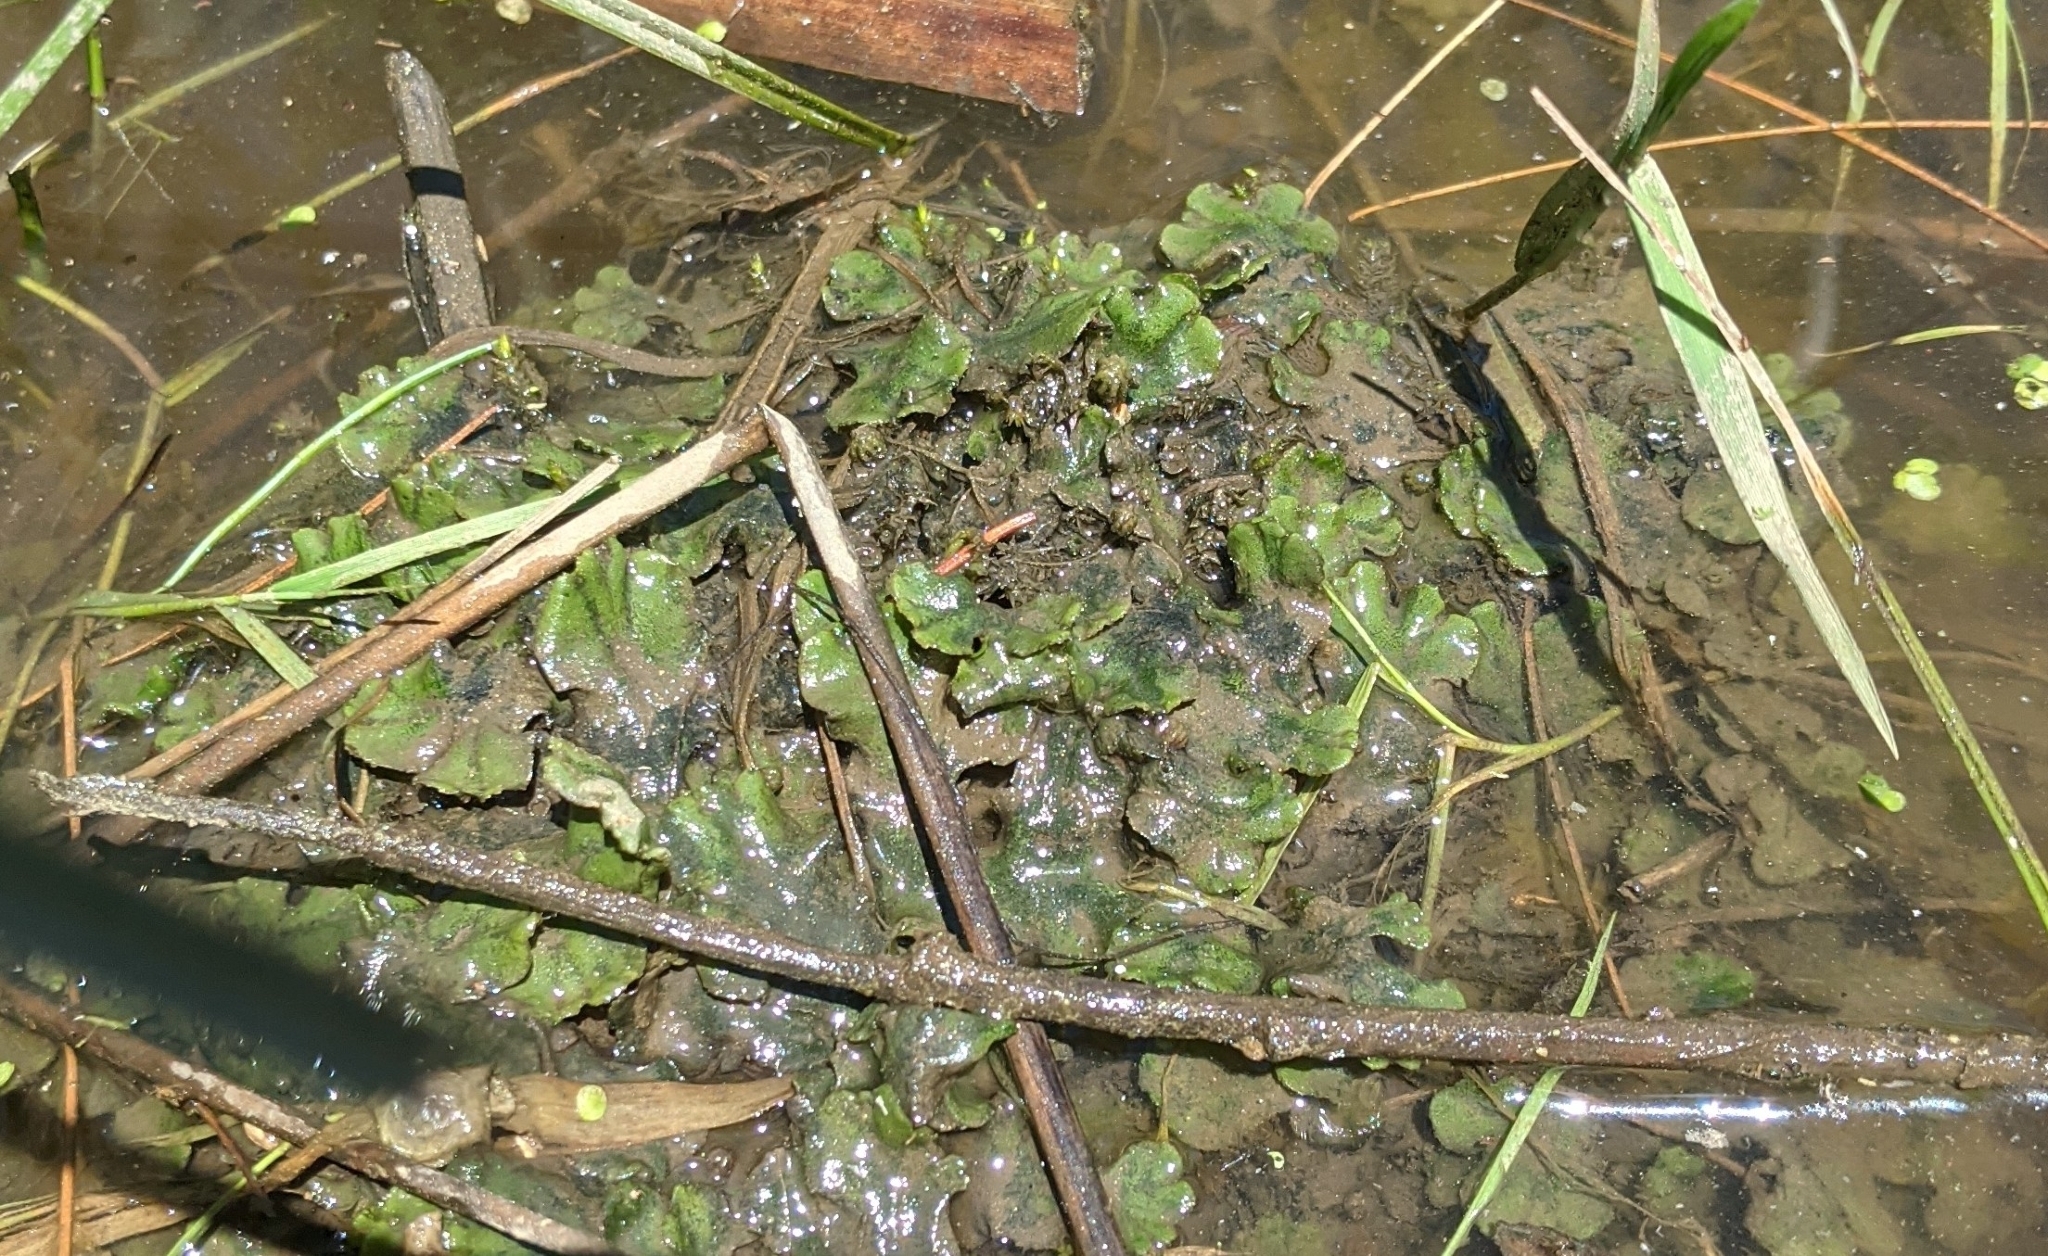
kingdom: Plantae
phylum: Marchantiophyta
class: Marchantiopsida
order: Marchantiales
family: Marchantiaceae
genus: Marchantia
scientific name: Marchantia polymorpha
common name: Common liverwort
